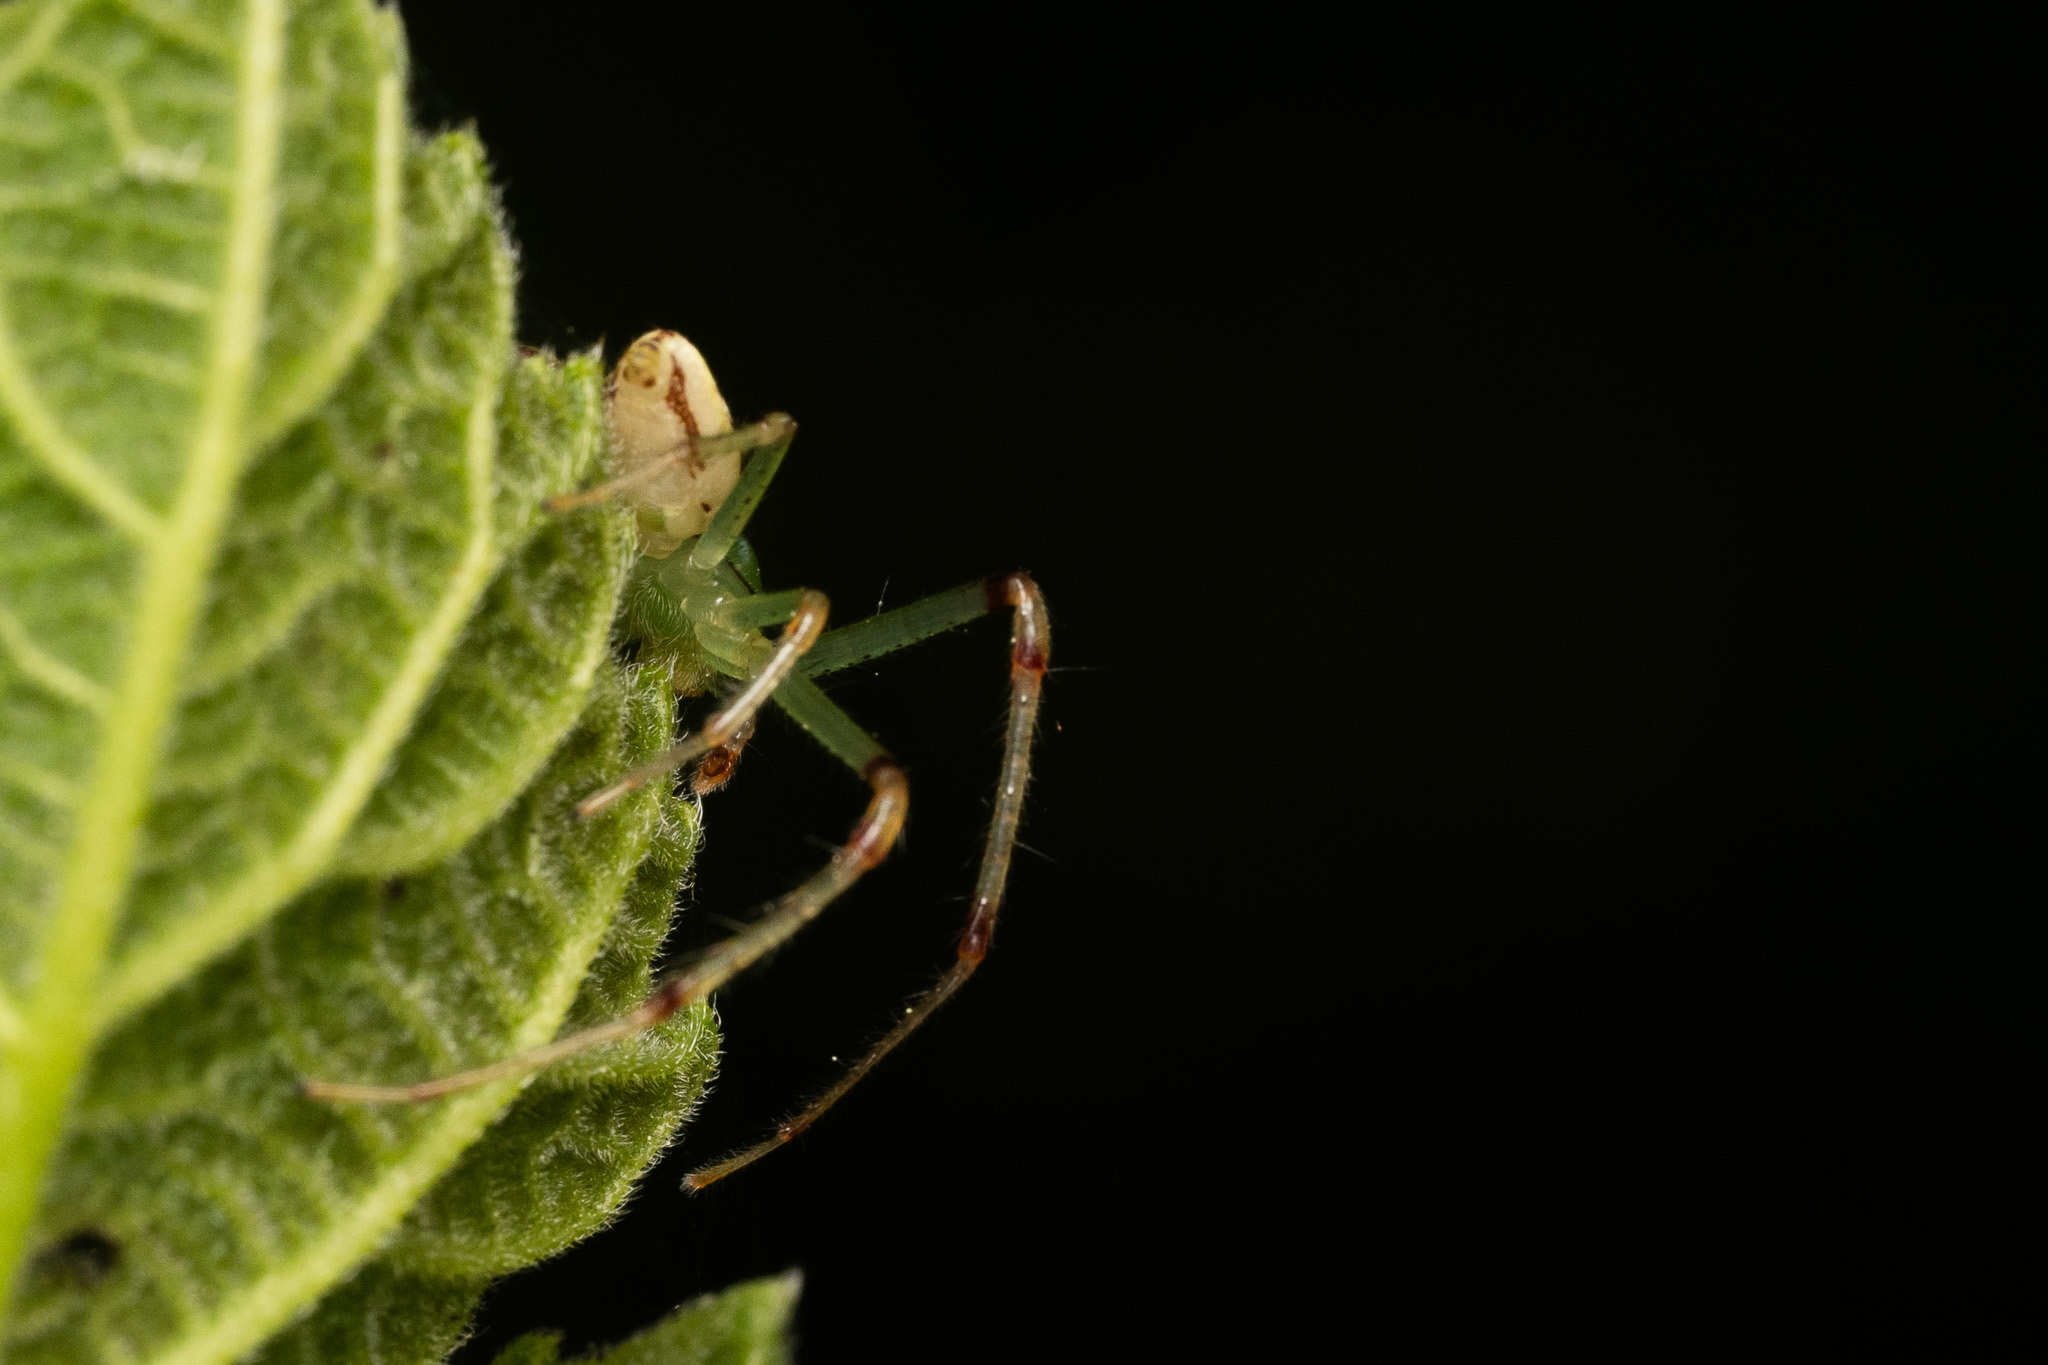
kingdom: Animalia
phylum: Arthropoda
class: Arachnida
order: Araneae
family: Thomisidae
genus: Diaea
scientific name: Diaea livens
